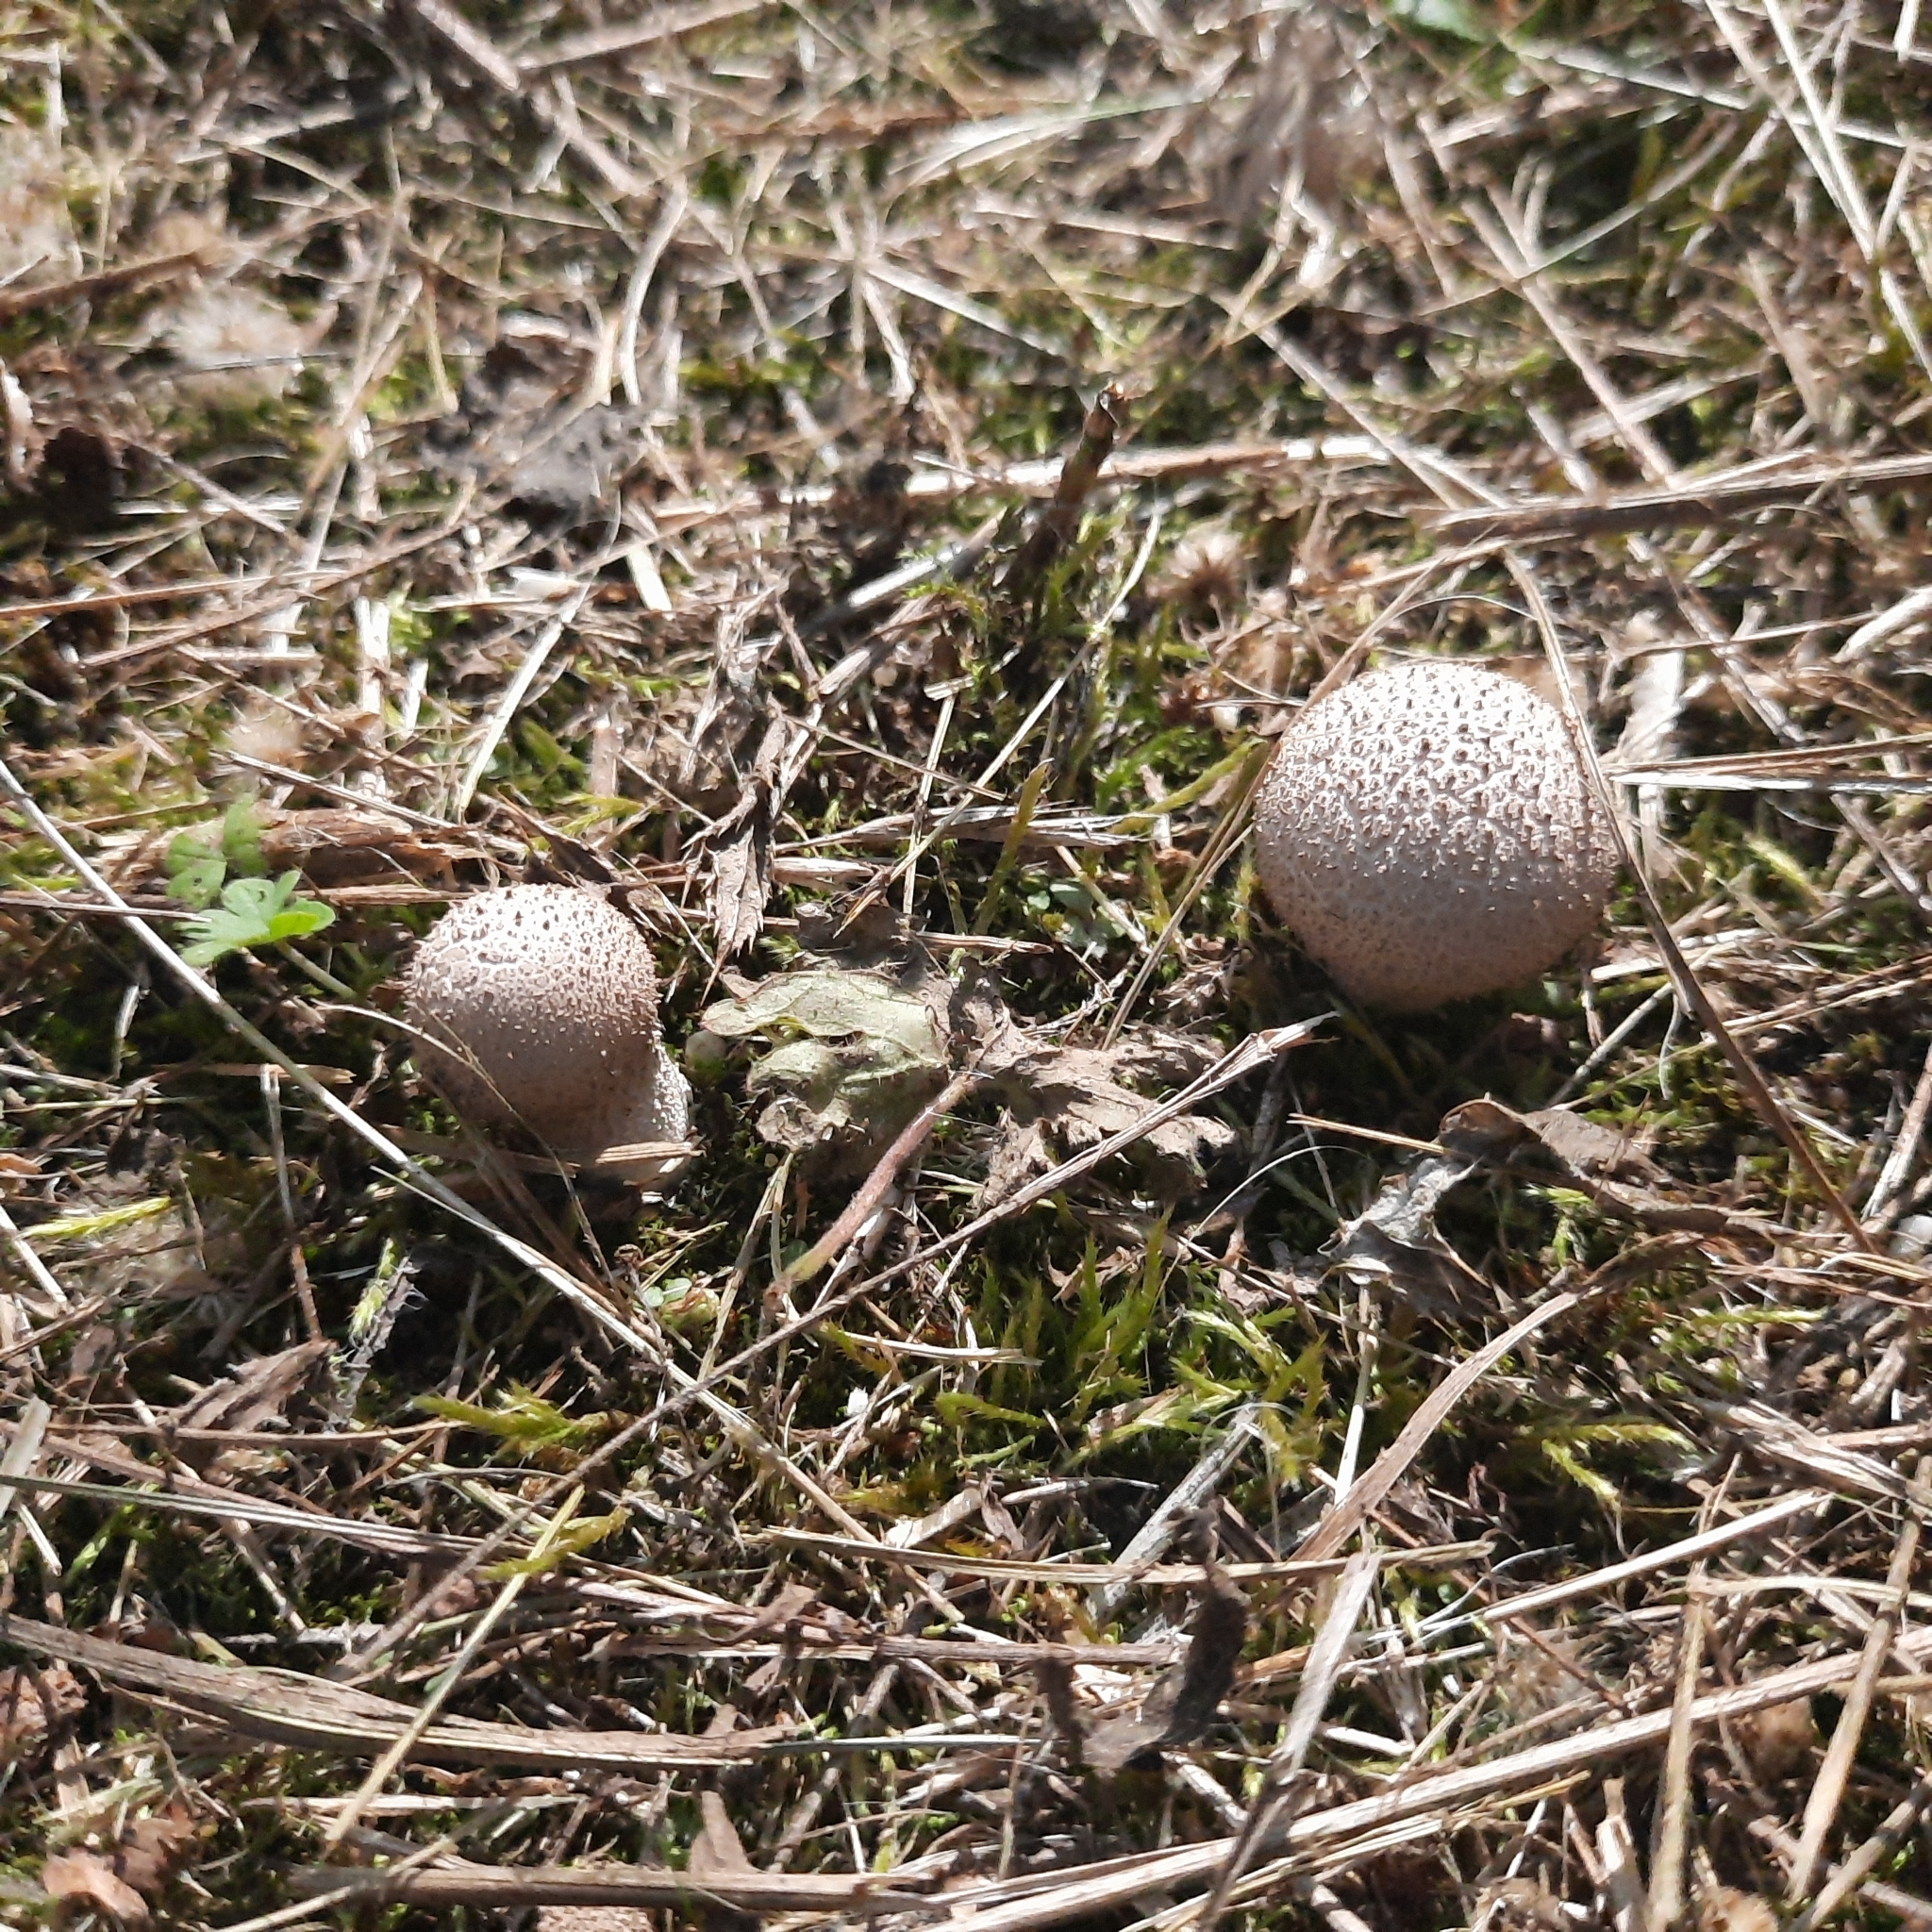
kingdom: Fungi
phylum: Basidiomycota
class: Agaricomycetes
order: Agaricales
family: Lycoperdaceae
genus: Lycoperdon
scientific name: Lycoperdon perlatum
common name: Common puffball
